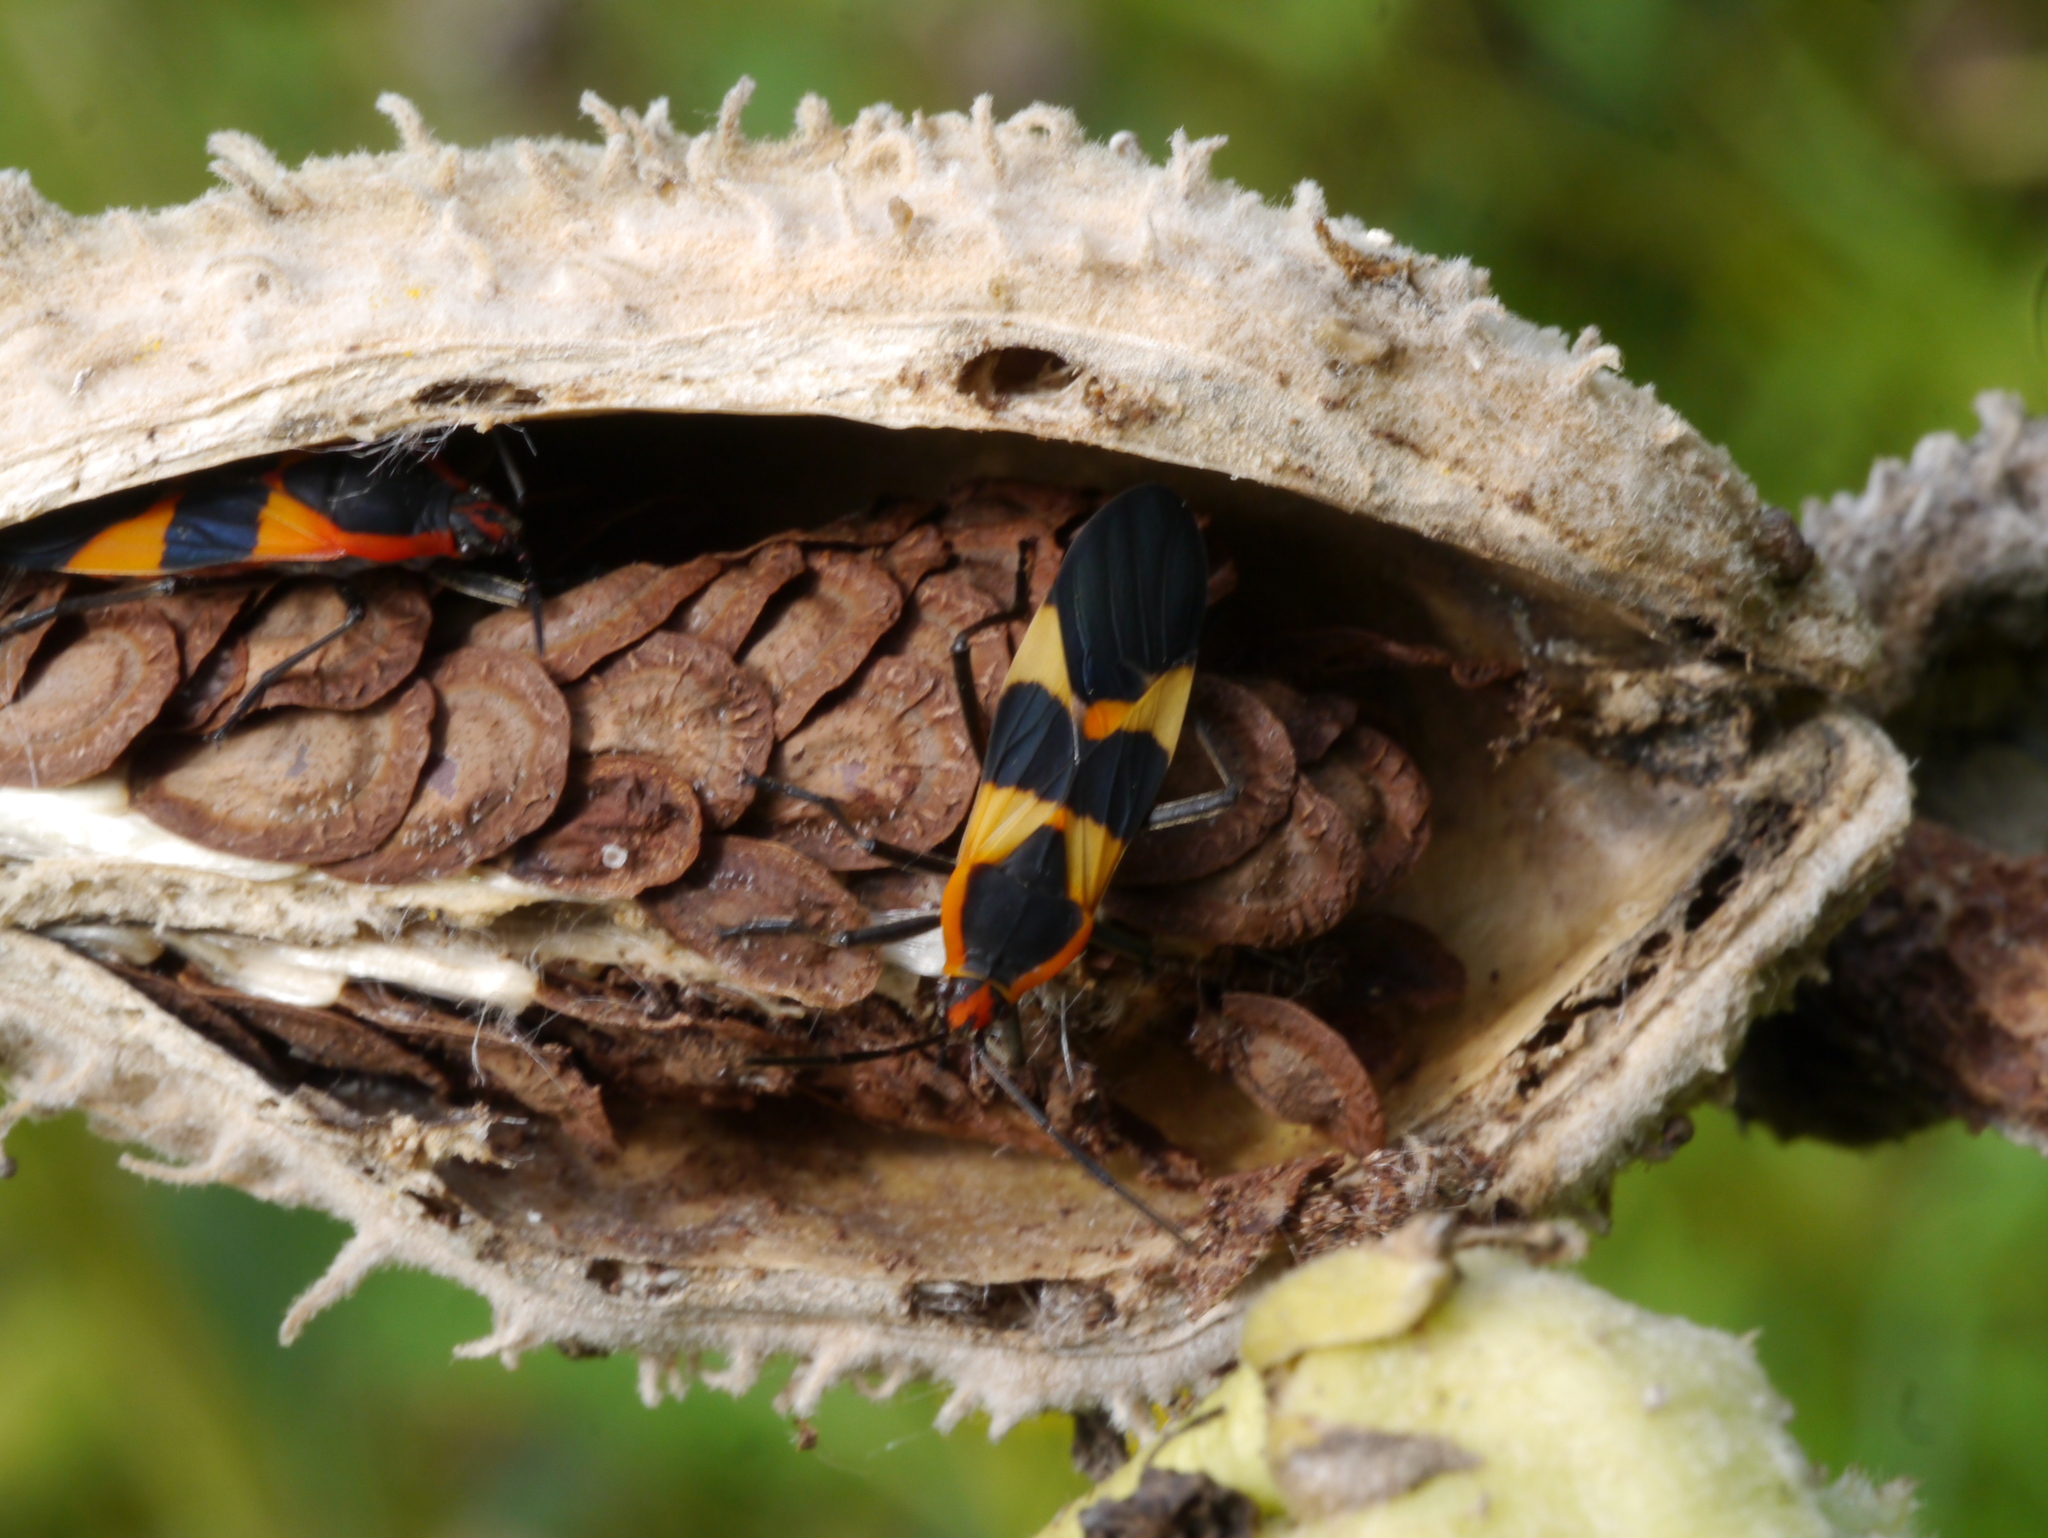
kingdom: Animalia
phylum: Arthropoda
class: Insecta
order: Hemiptera
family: Lygaeidae
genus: Oncopeltus
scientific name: Oncopeltus fasciatus
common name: Large milkweed bug
